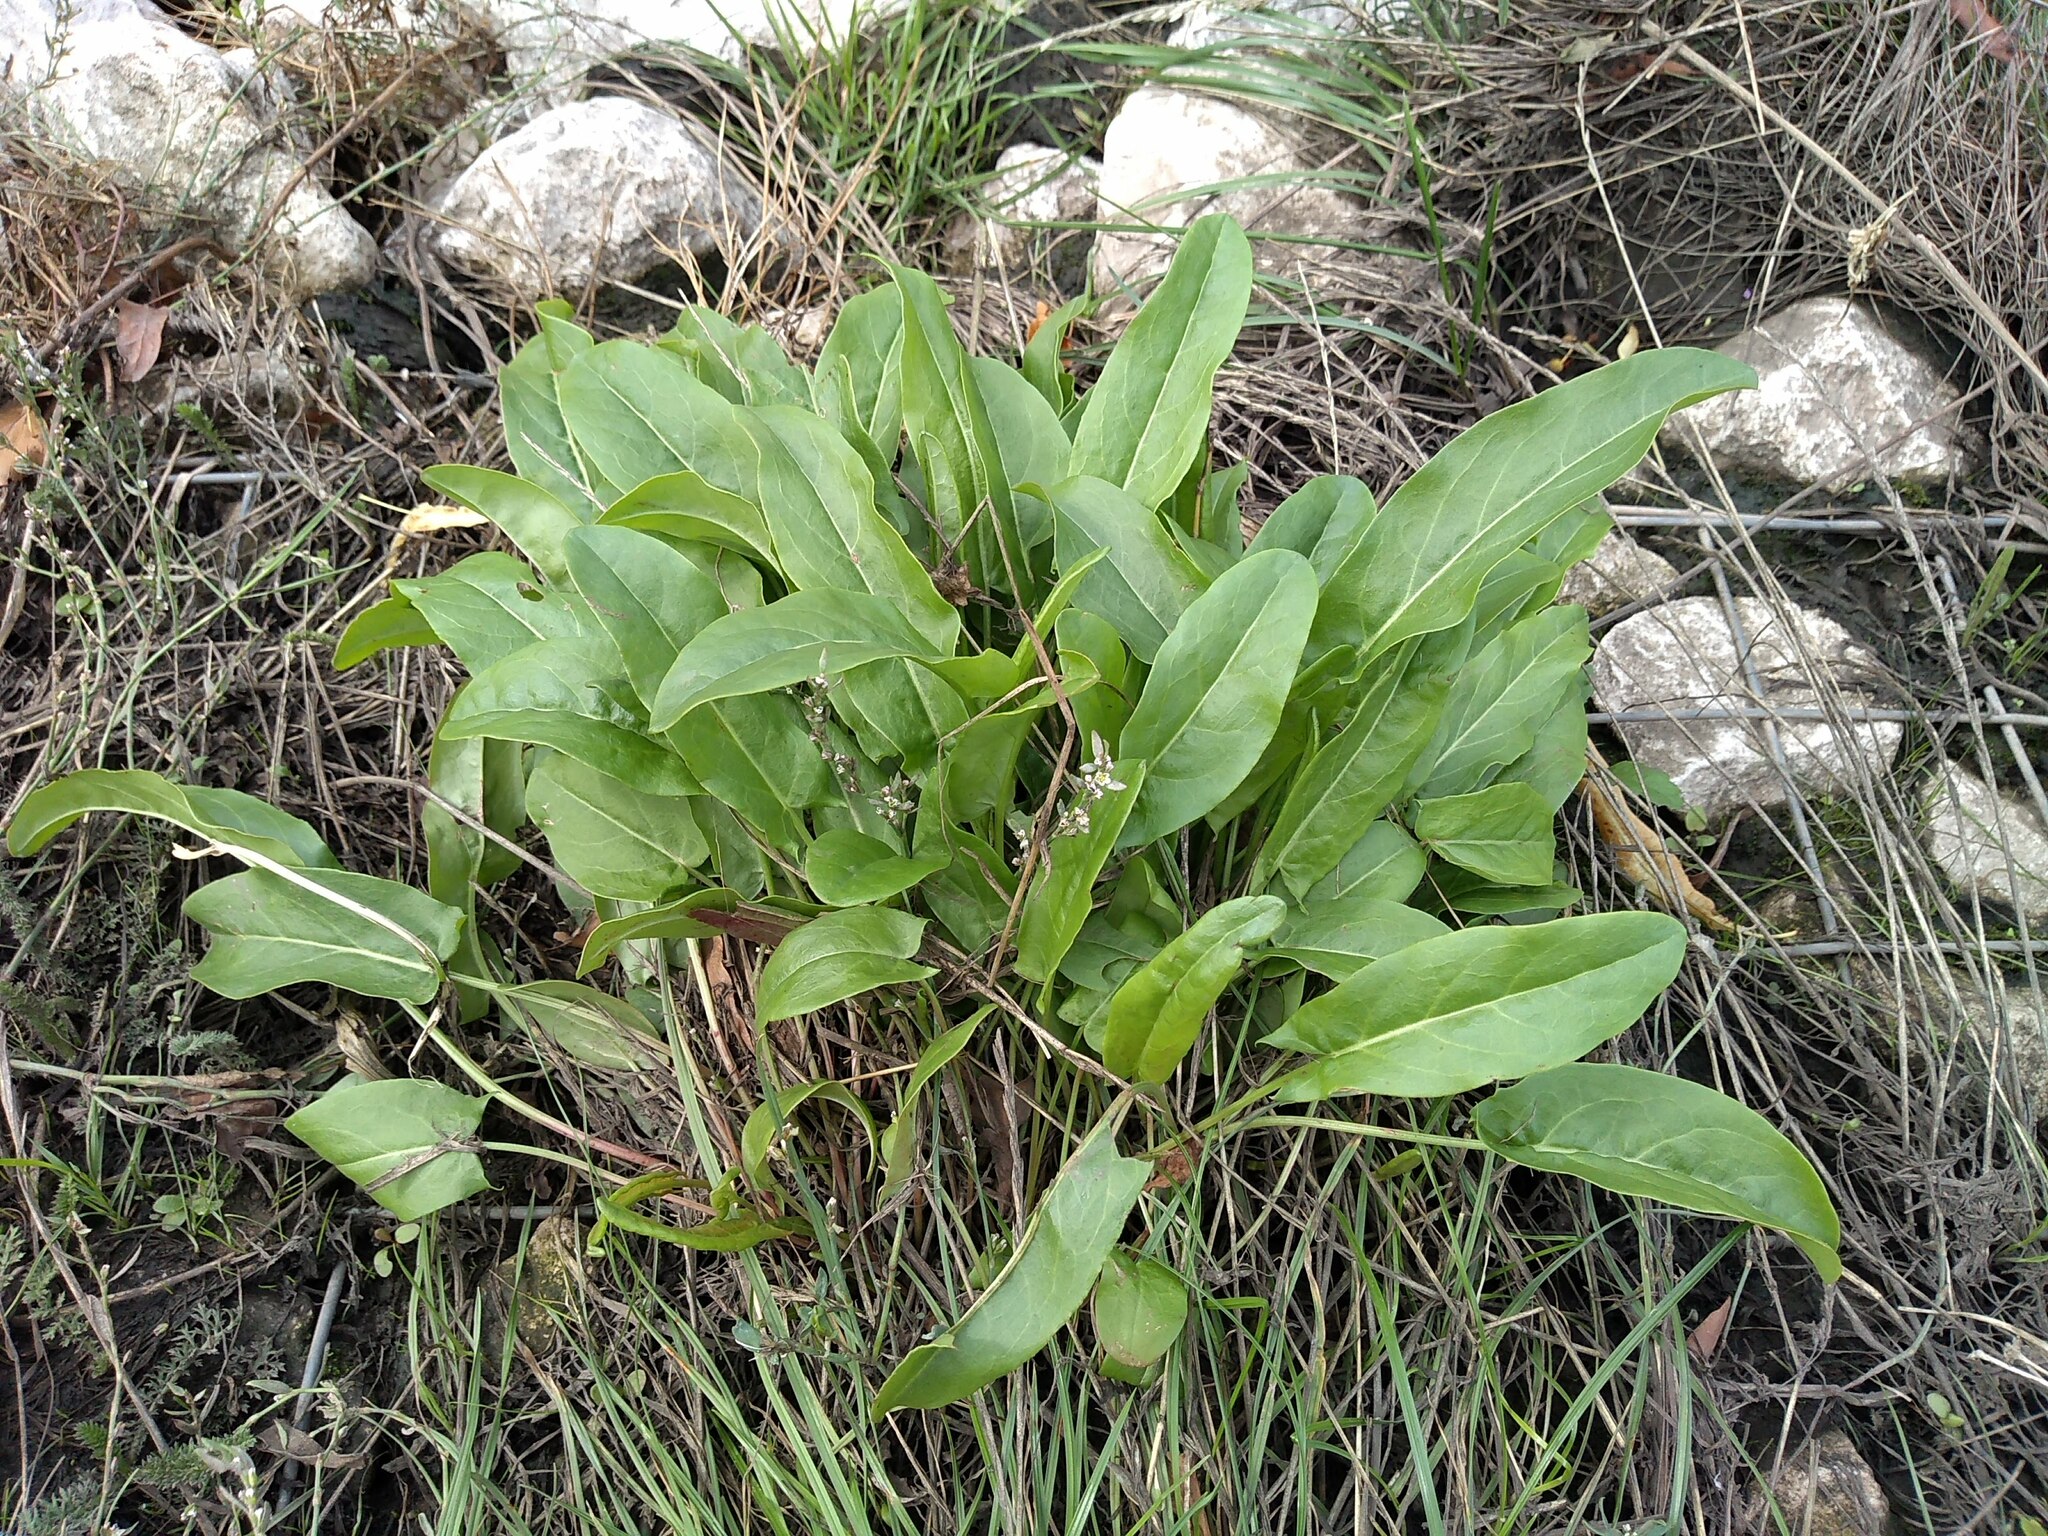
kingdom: Plantae
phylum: Tracheophyta
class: Magnoliopsida
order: Caryophyllales
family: Polygonaceae
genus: Rumex
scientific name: Rumex acetosa
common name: Garden sorrel
